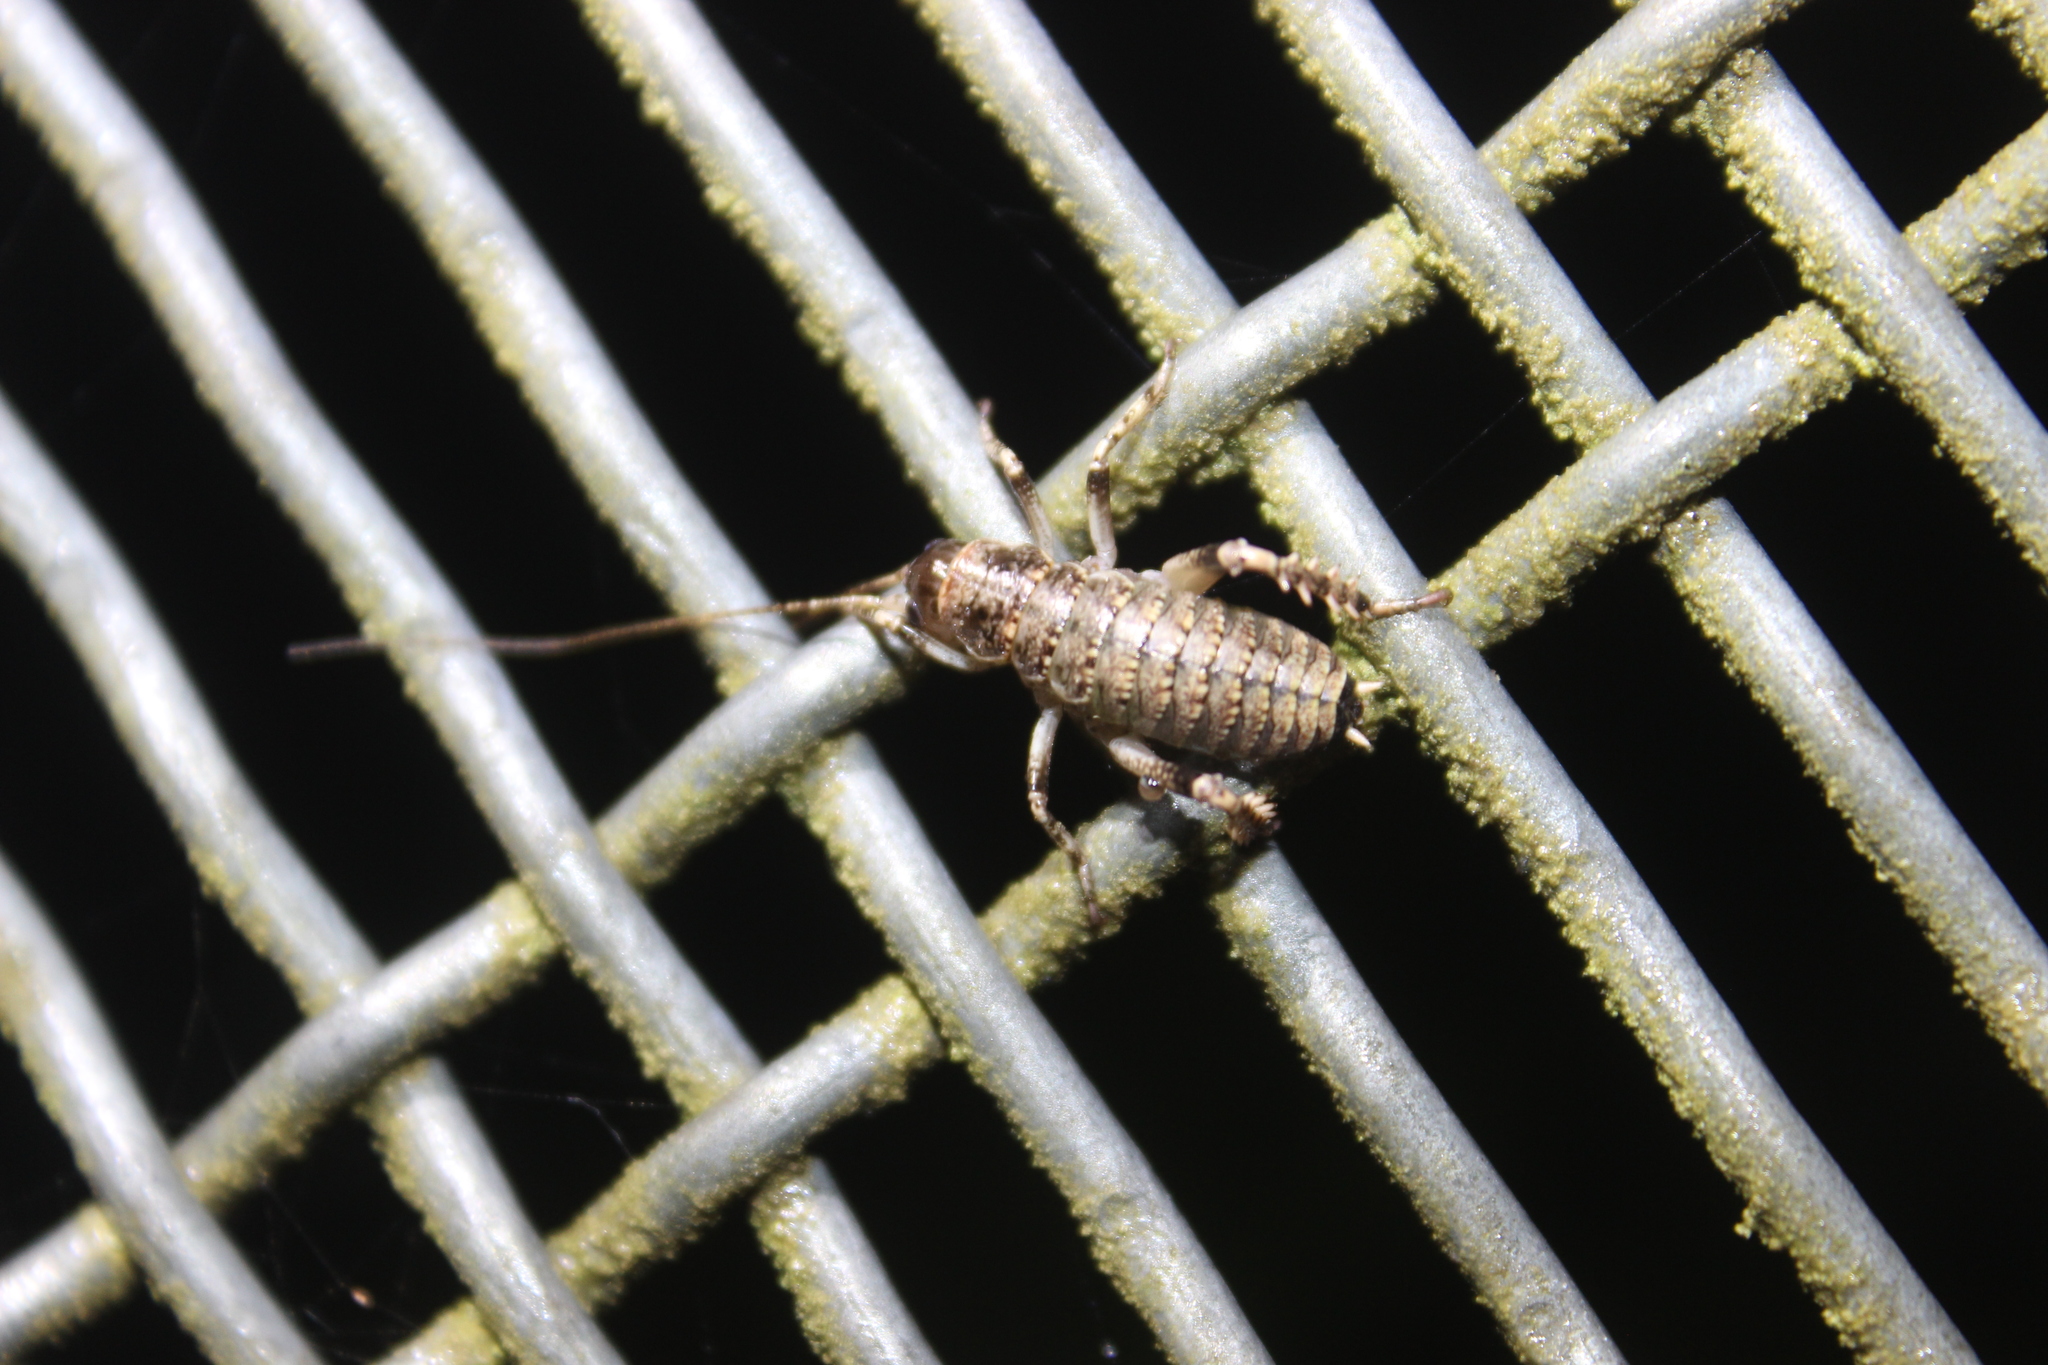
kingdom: Animalia
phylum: Arthropoda
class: Insecta
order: Orthoptera
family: Anostostomatidae
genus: Deinacrida
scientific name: Deinacrida rugosa
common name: Stephens island weta
